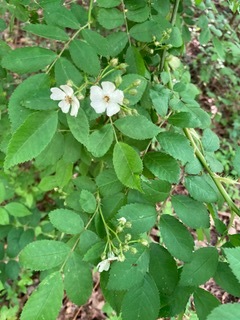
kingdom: Plantae
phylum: Tracheophyta
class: Magnoliopsida
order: Rosales
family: Rosaceae
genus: Rosa
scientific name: Rosa multiflora
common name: Multiflora rose
